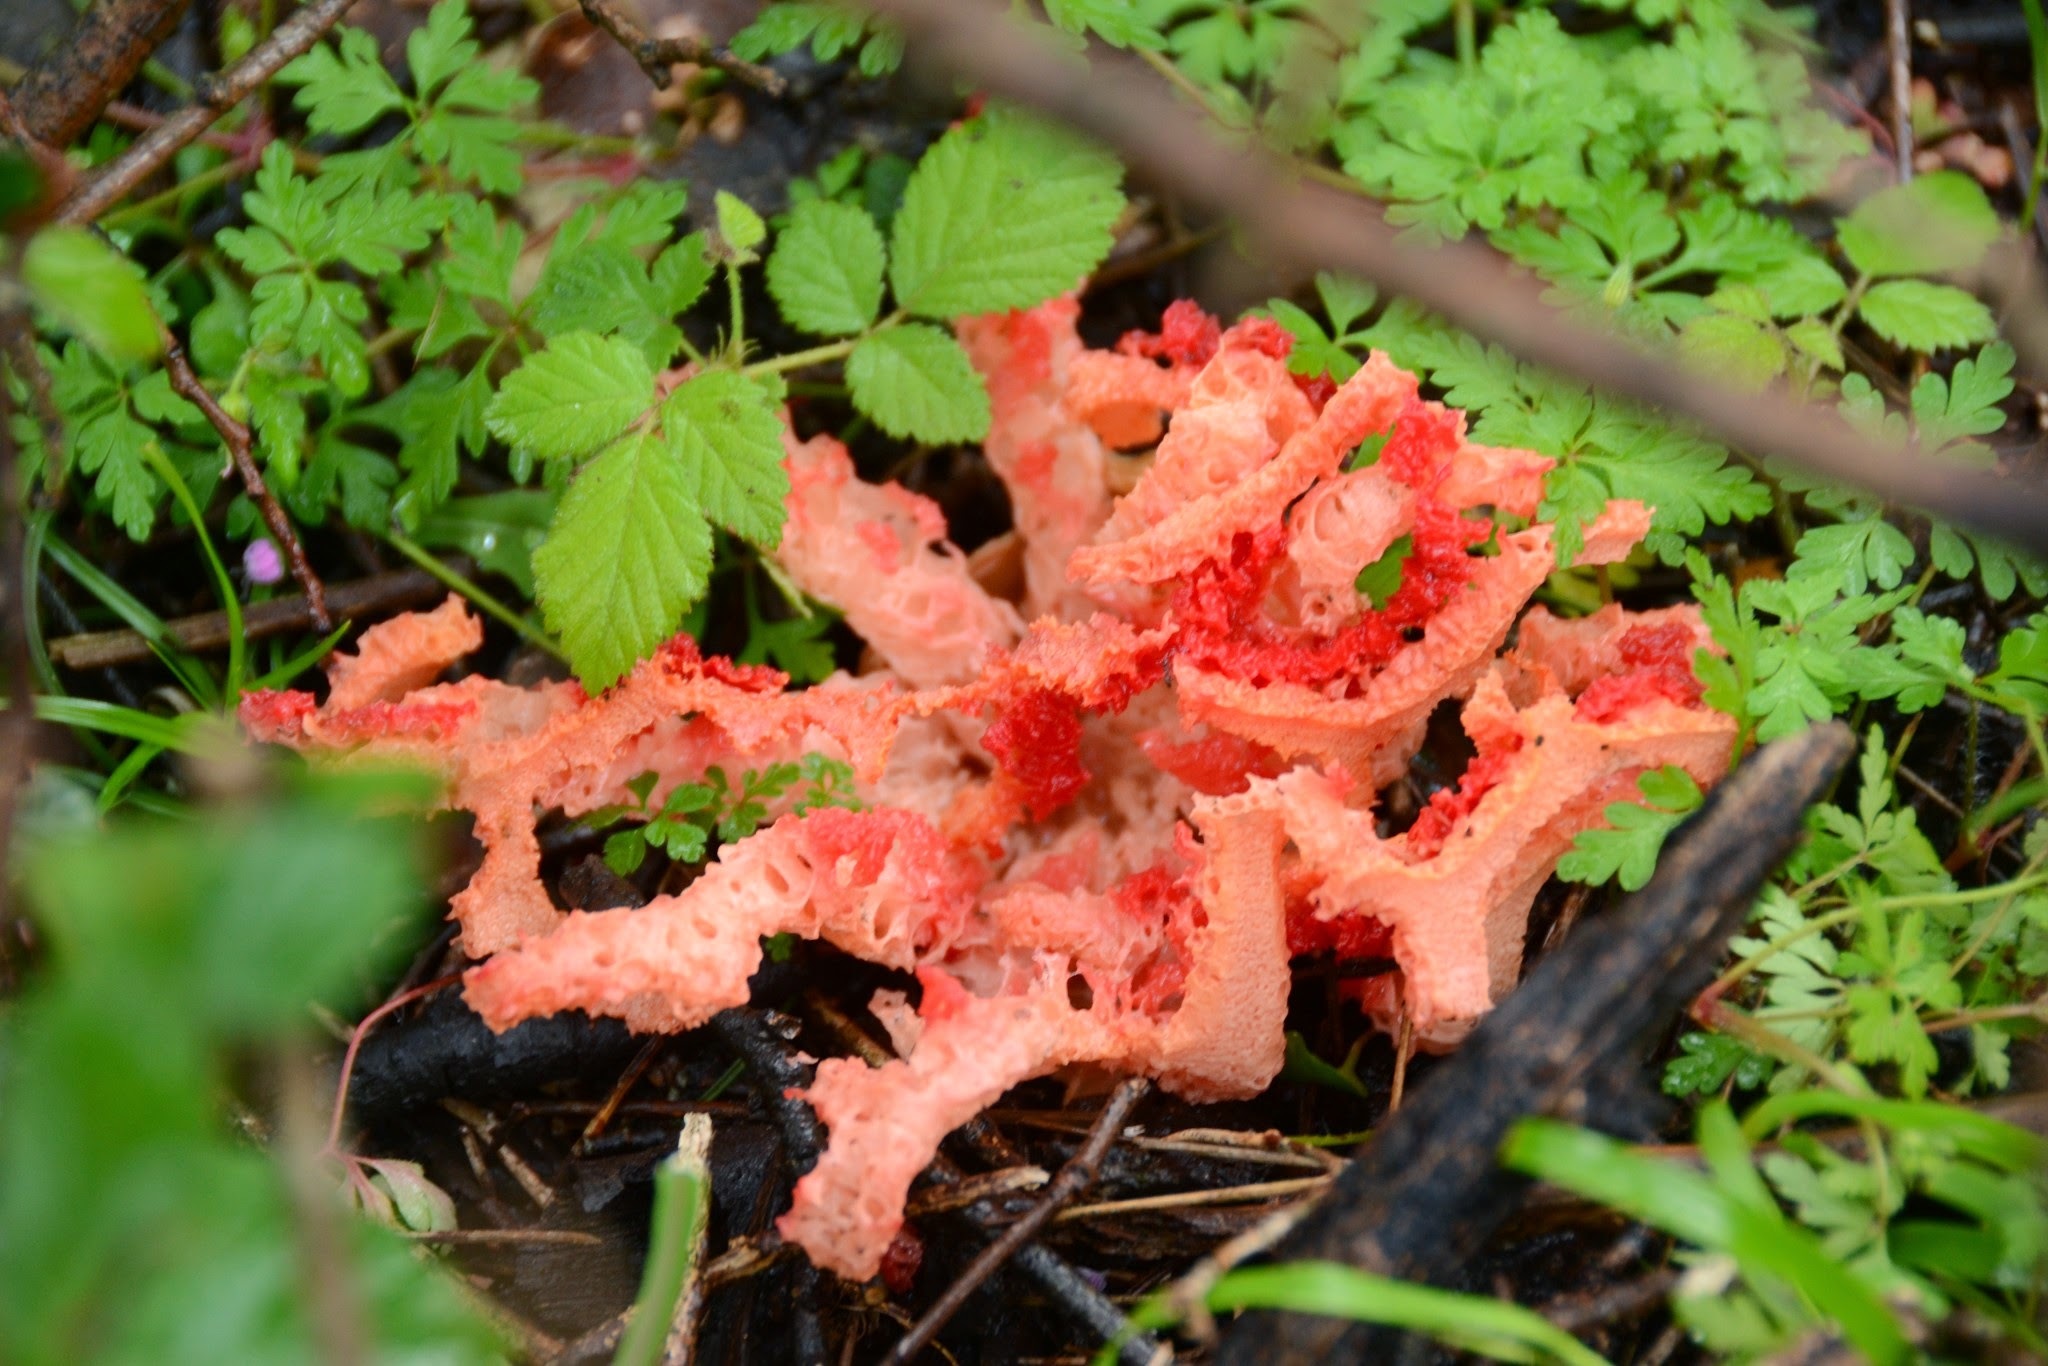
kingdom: Fungi
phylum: Basidiomycota
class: Agaricomycetes
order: Phallales
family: Phallaceae
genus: Clathrus
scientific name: Clathrus ruber
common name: Red cage
